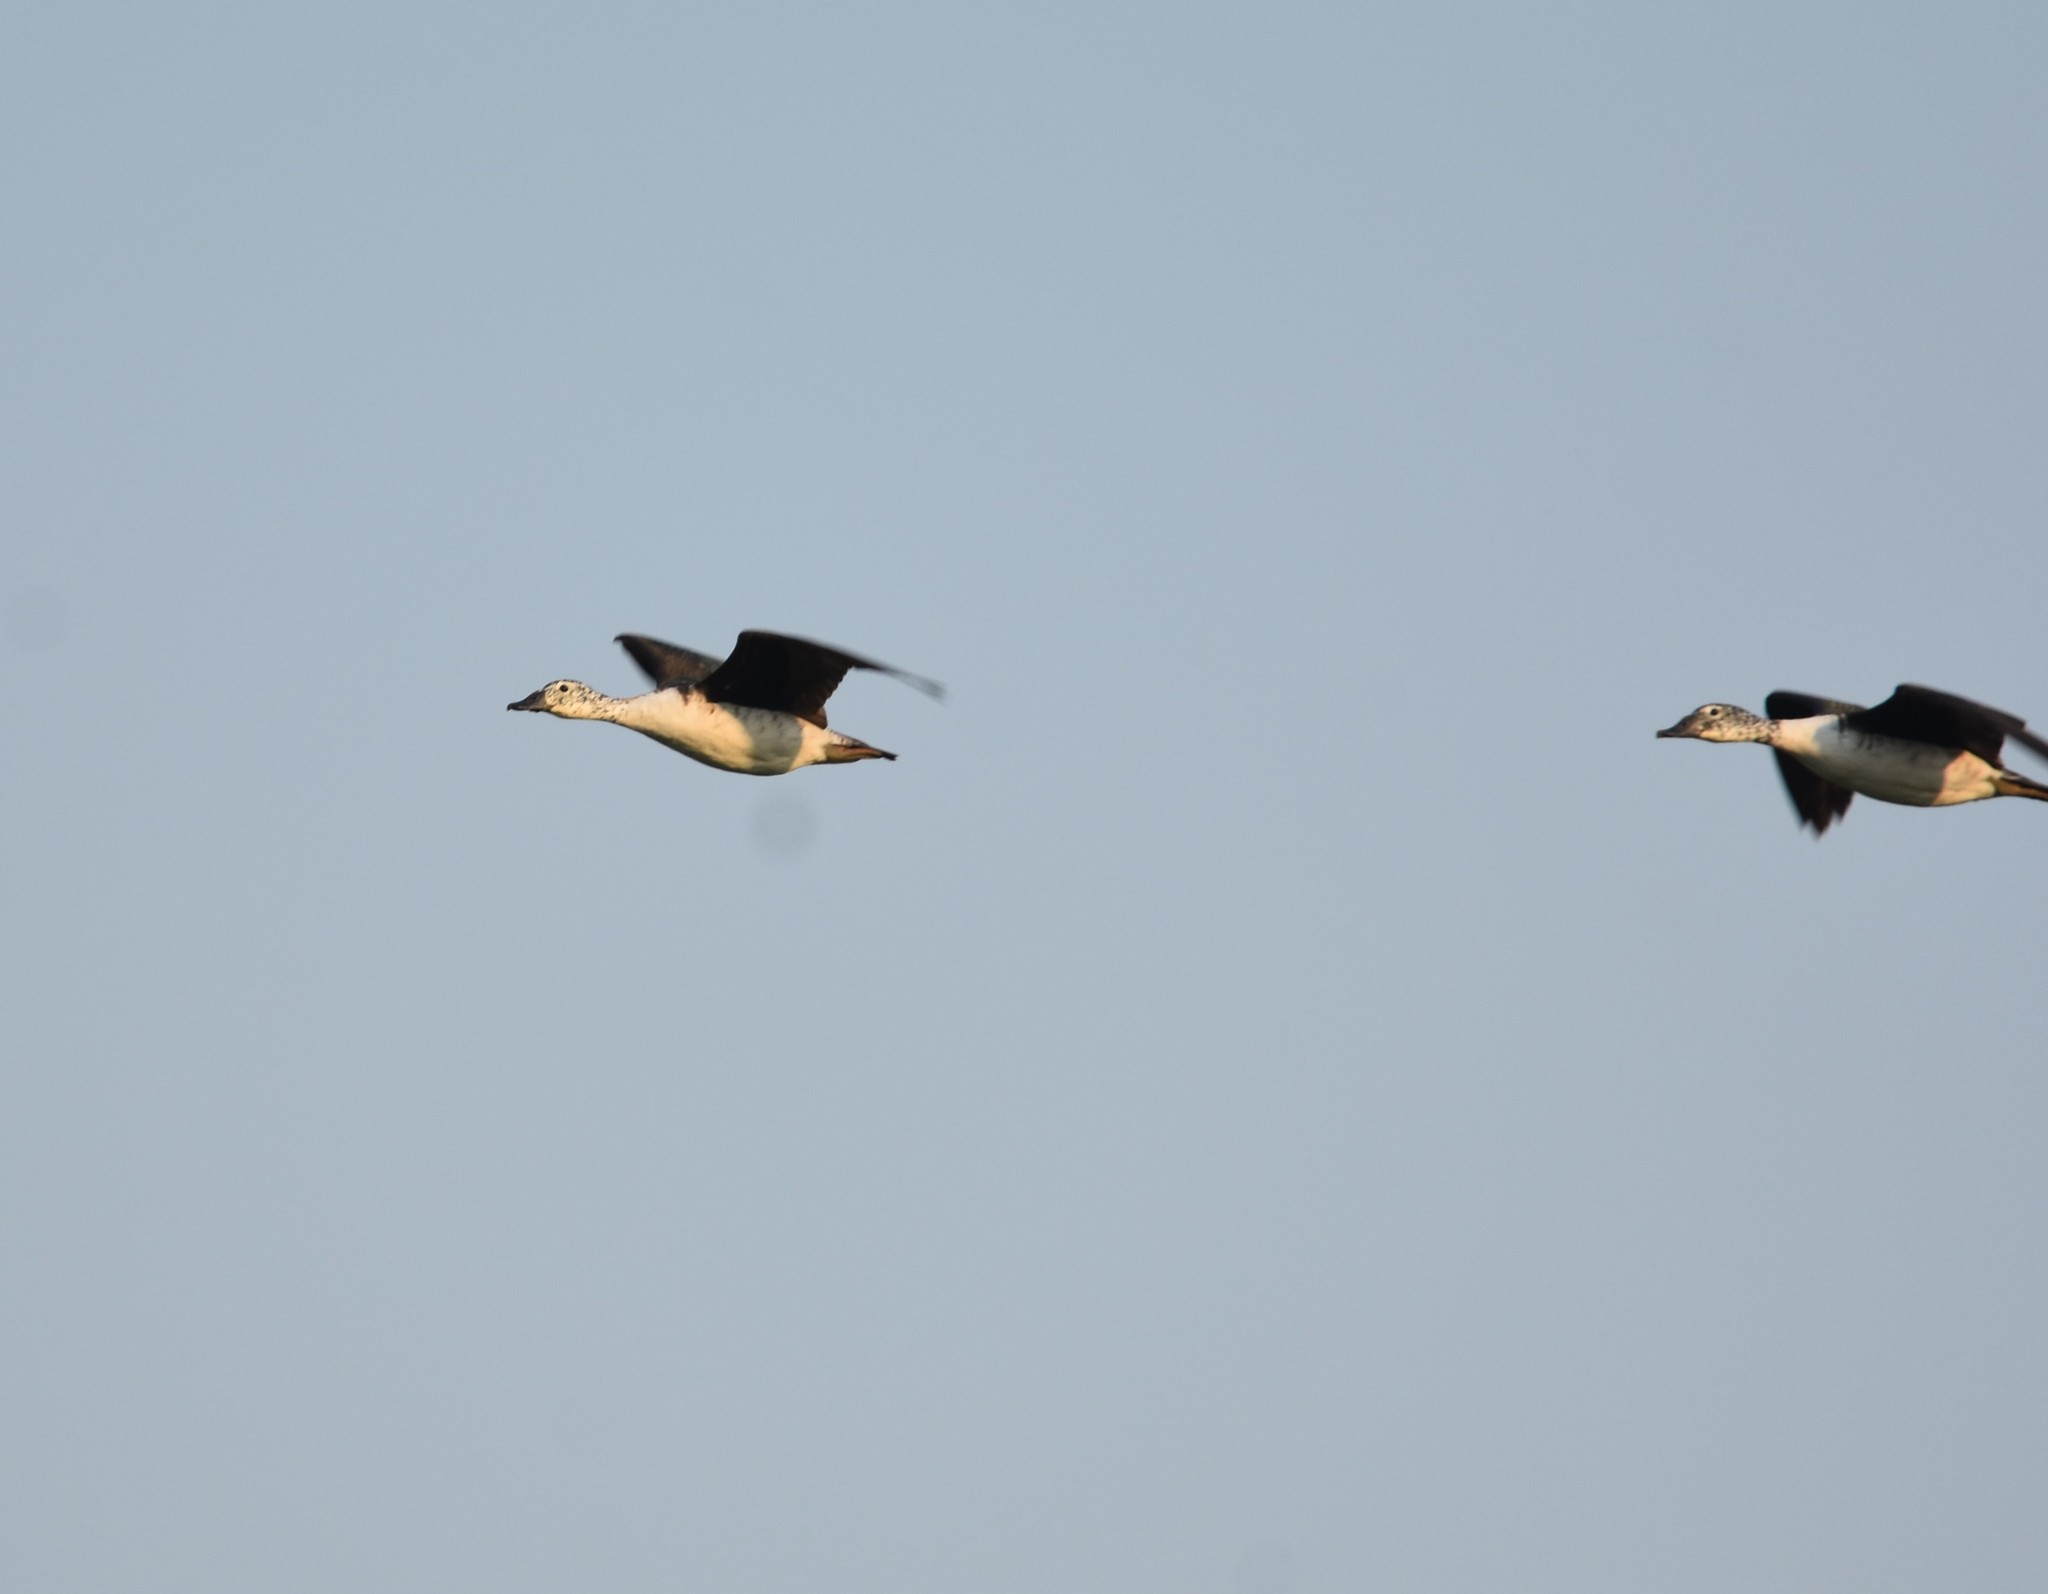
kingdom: Animalia
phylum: Chordata
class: Aves
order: Anseriformes
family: Anatidae
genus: Sarkidiornis
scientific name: Sarkidiornis melanotos
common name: Comb duck
